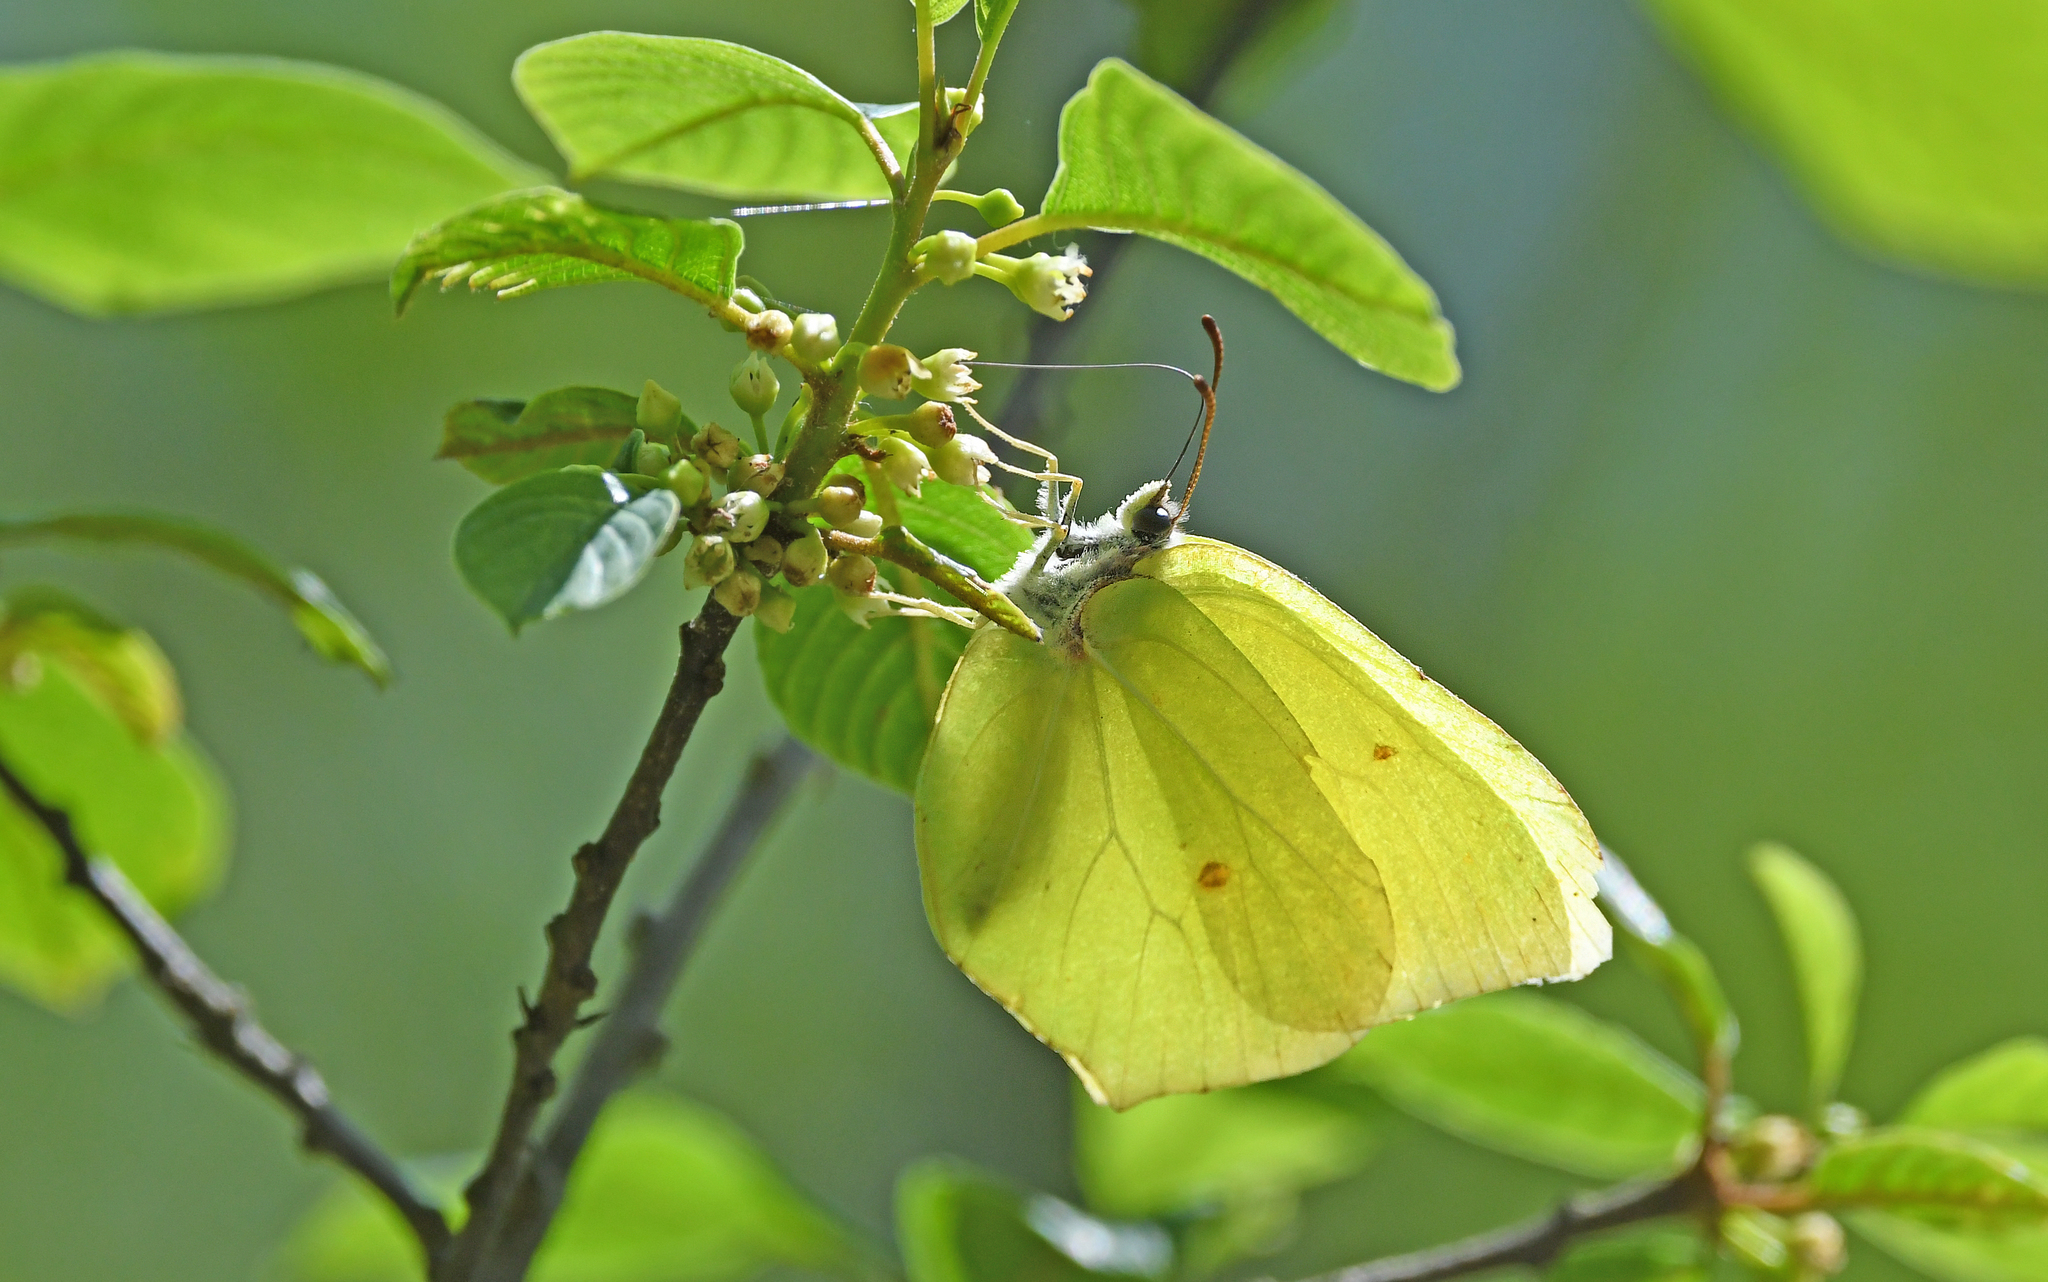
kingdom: Animalia
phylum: Arthropoda
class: Insecta
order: Lepidoptera
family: Pieridae
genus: Gonepteryx
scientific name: Gonepteryx rhamni
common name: Brimstone
